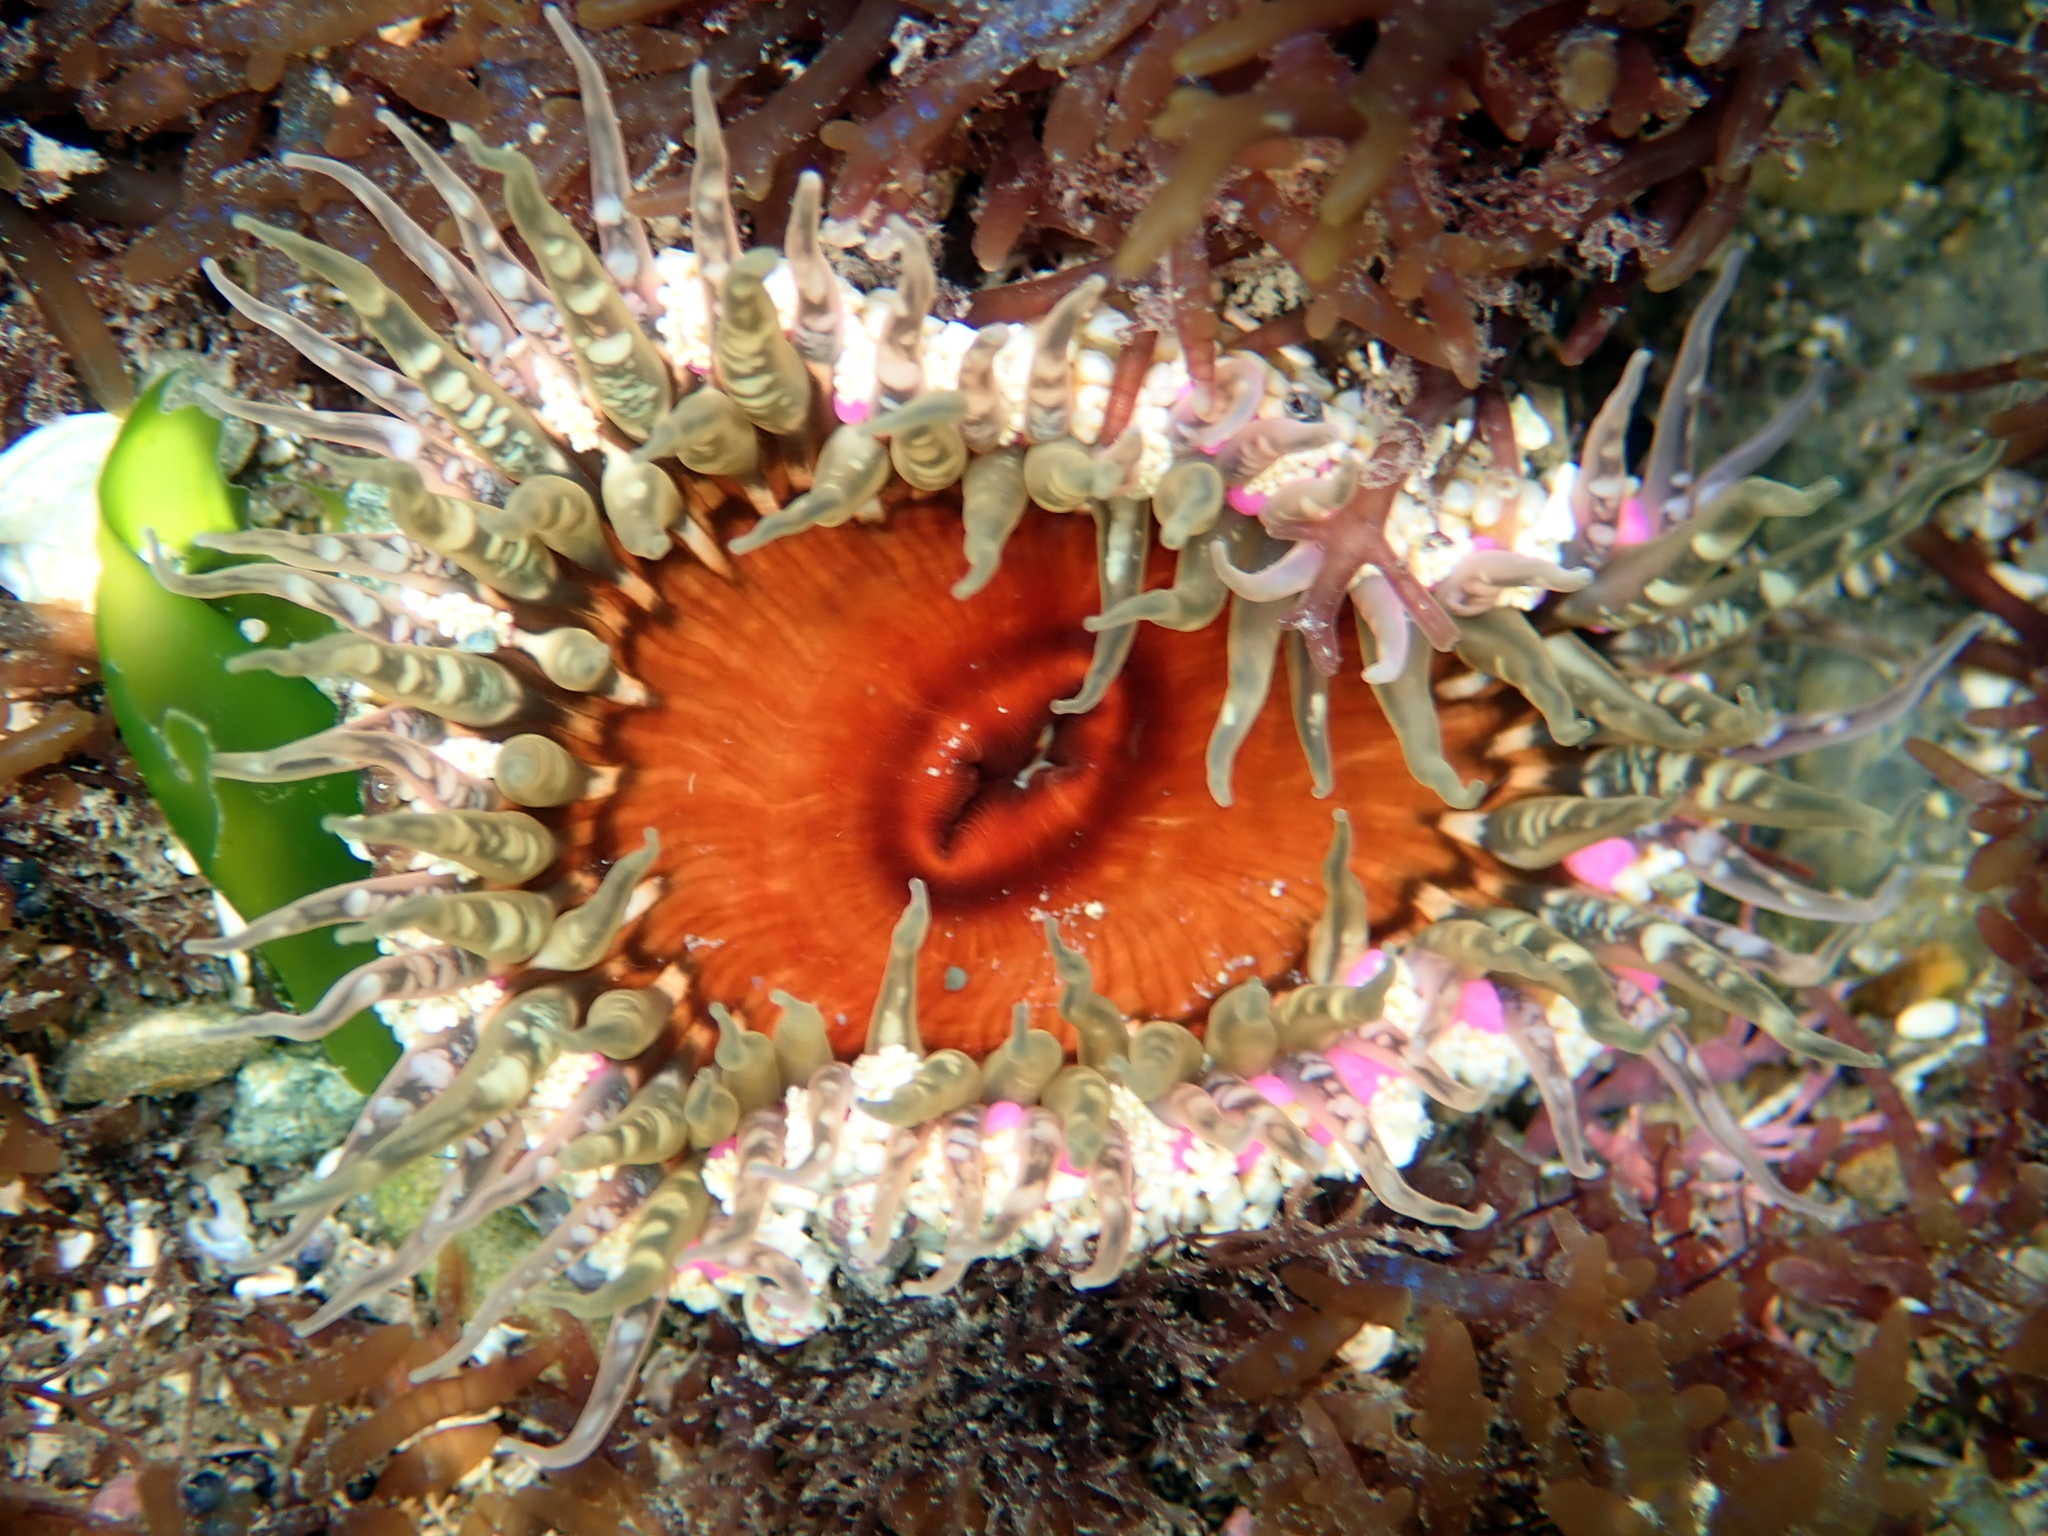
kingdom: Animalia
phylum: Cnidaria
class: Anthozoa
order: Actiniaria
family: Actiniidae
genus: Oulactis
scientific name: Oulactis muscosa
